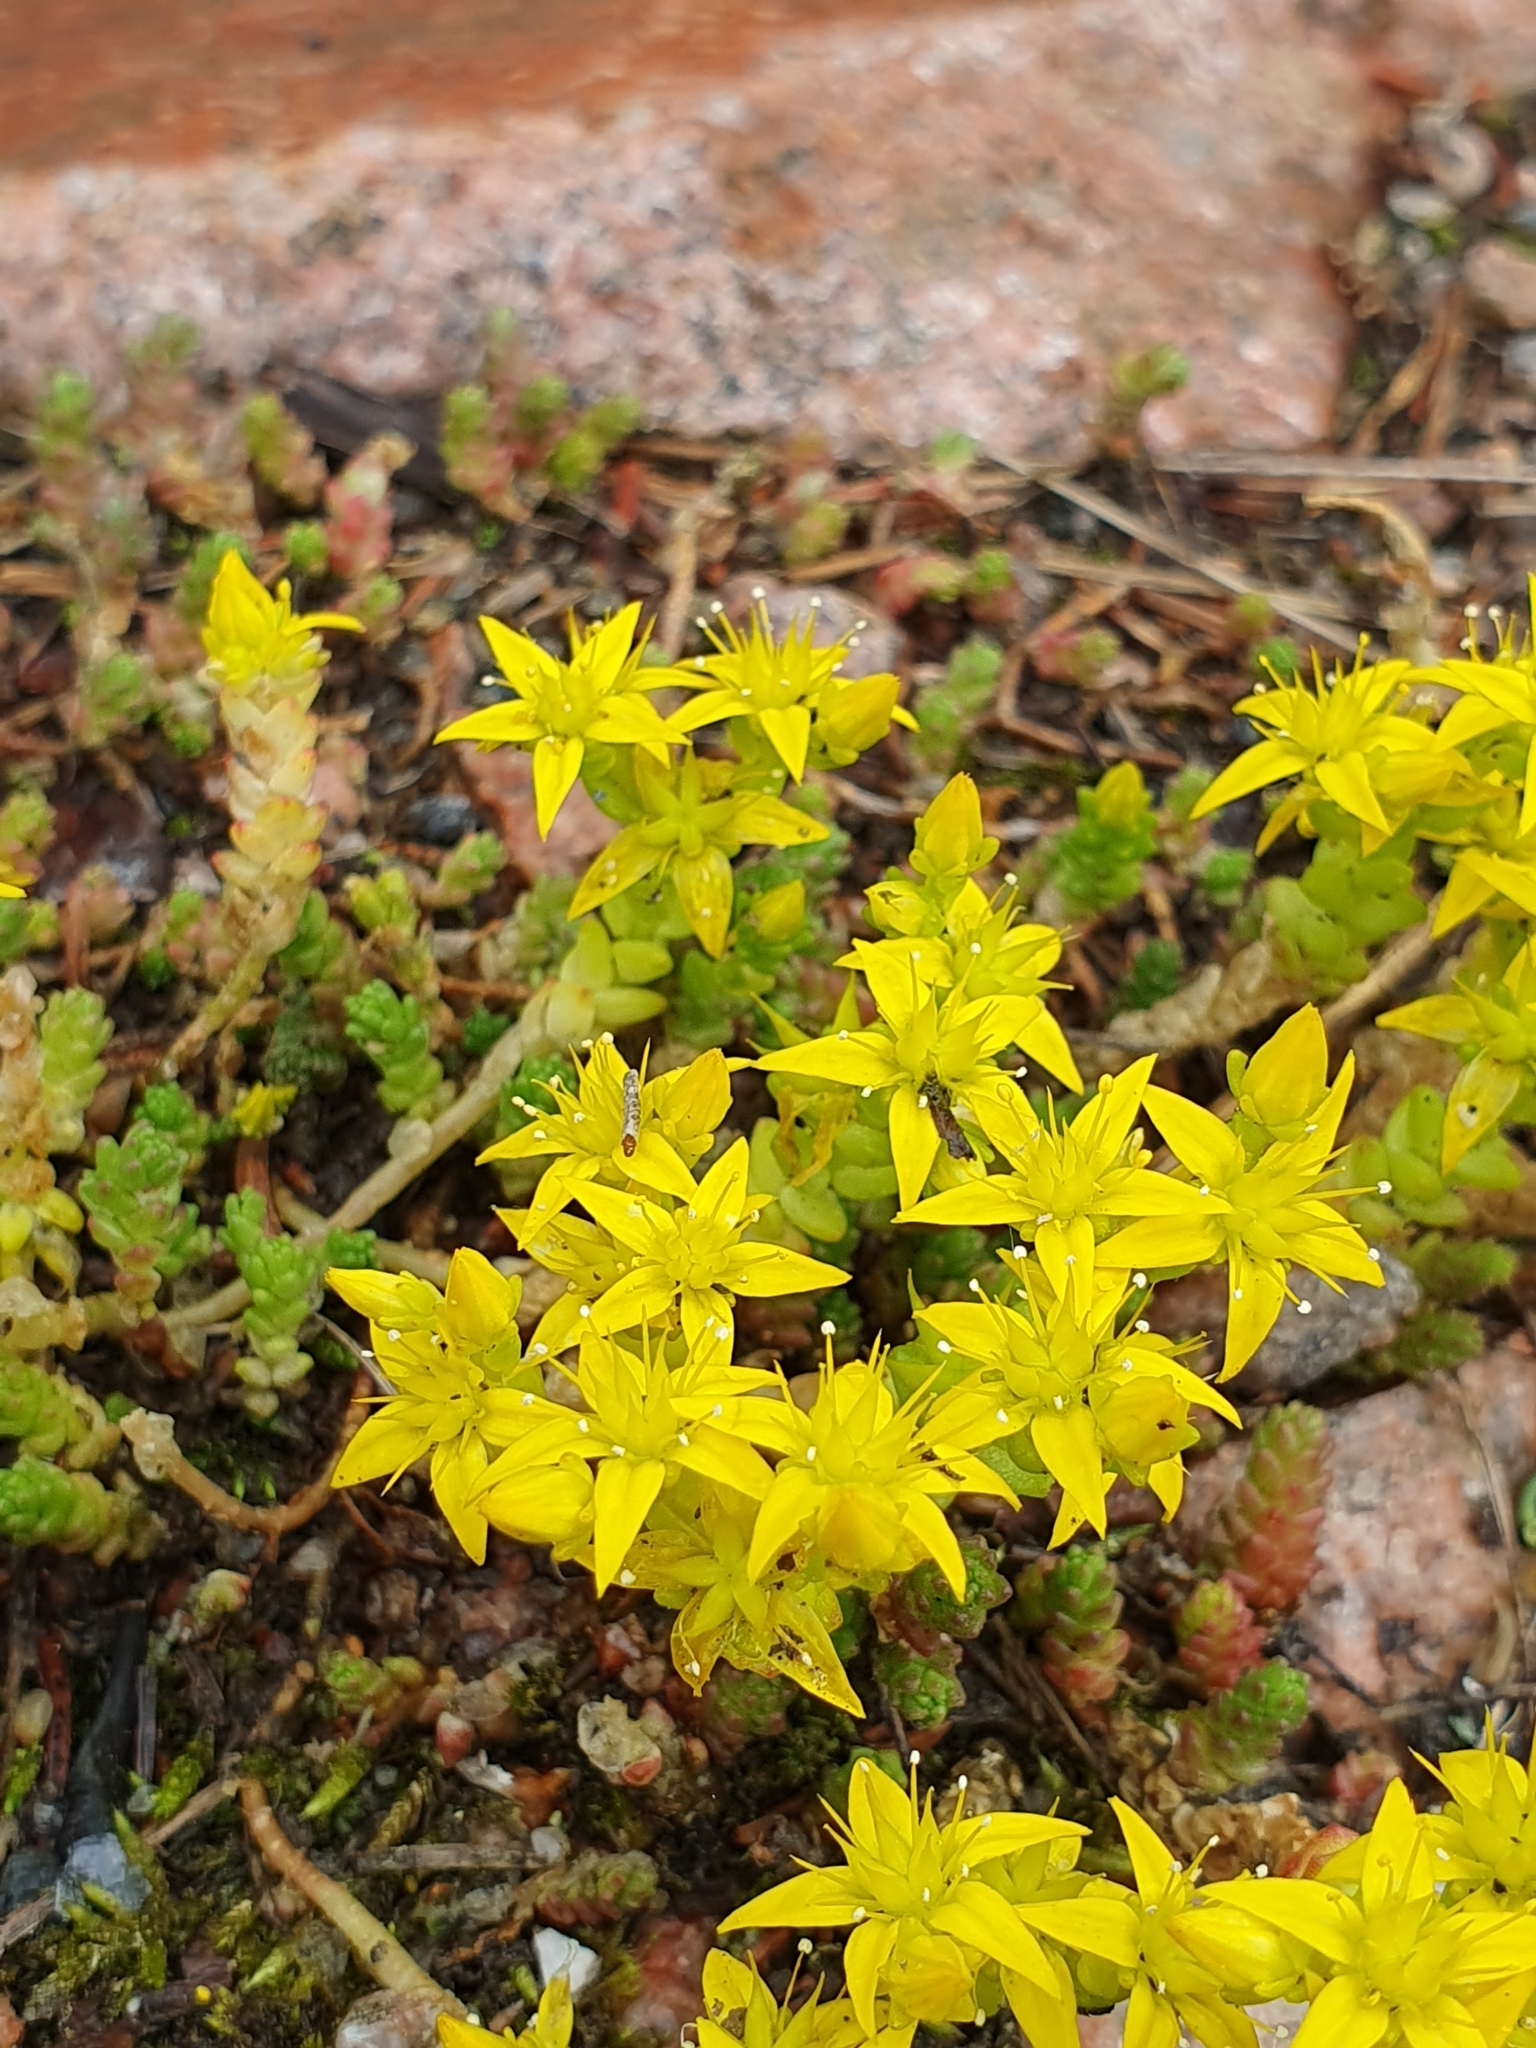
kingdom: Plantae
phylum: Tracheophyta
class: Magnoliopsida
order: Saxifragales
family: Crassulaceae
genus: Sedum
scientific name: Sedum acre
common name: Biting stonecrop
